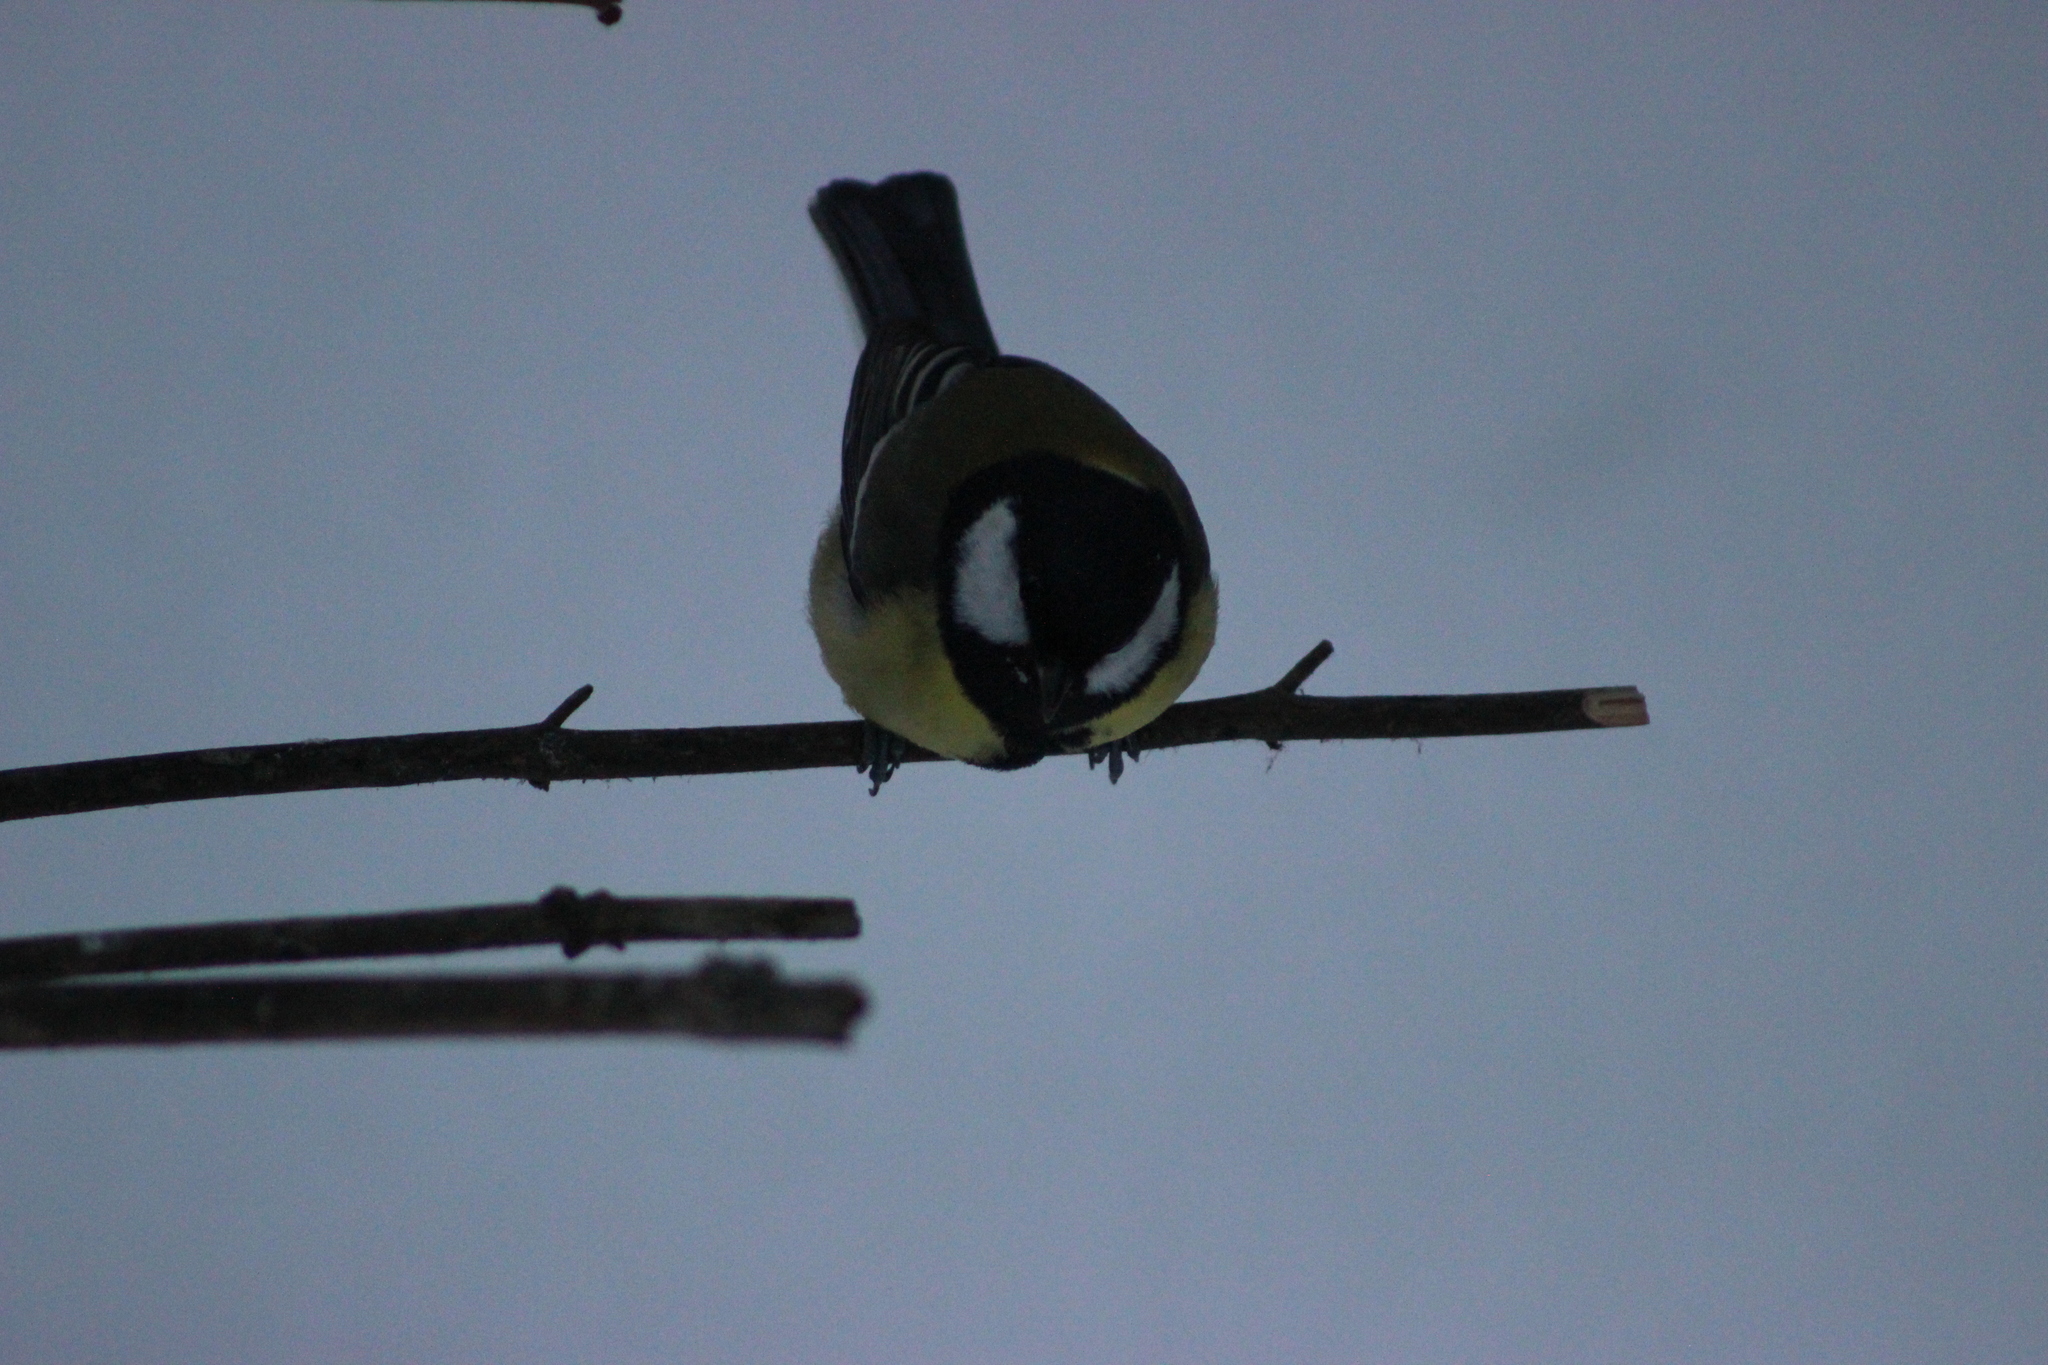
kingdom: Animalia
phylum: Chordata
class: Aves
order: Passeriformes
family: Paridae
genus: Parus
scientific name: Parus major
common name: Great tit
